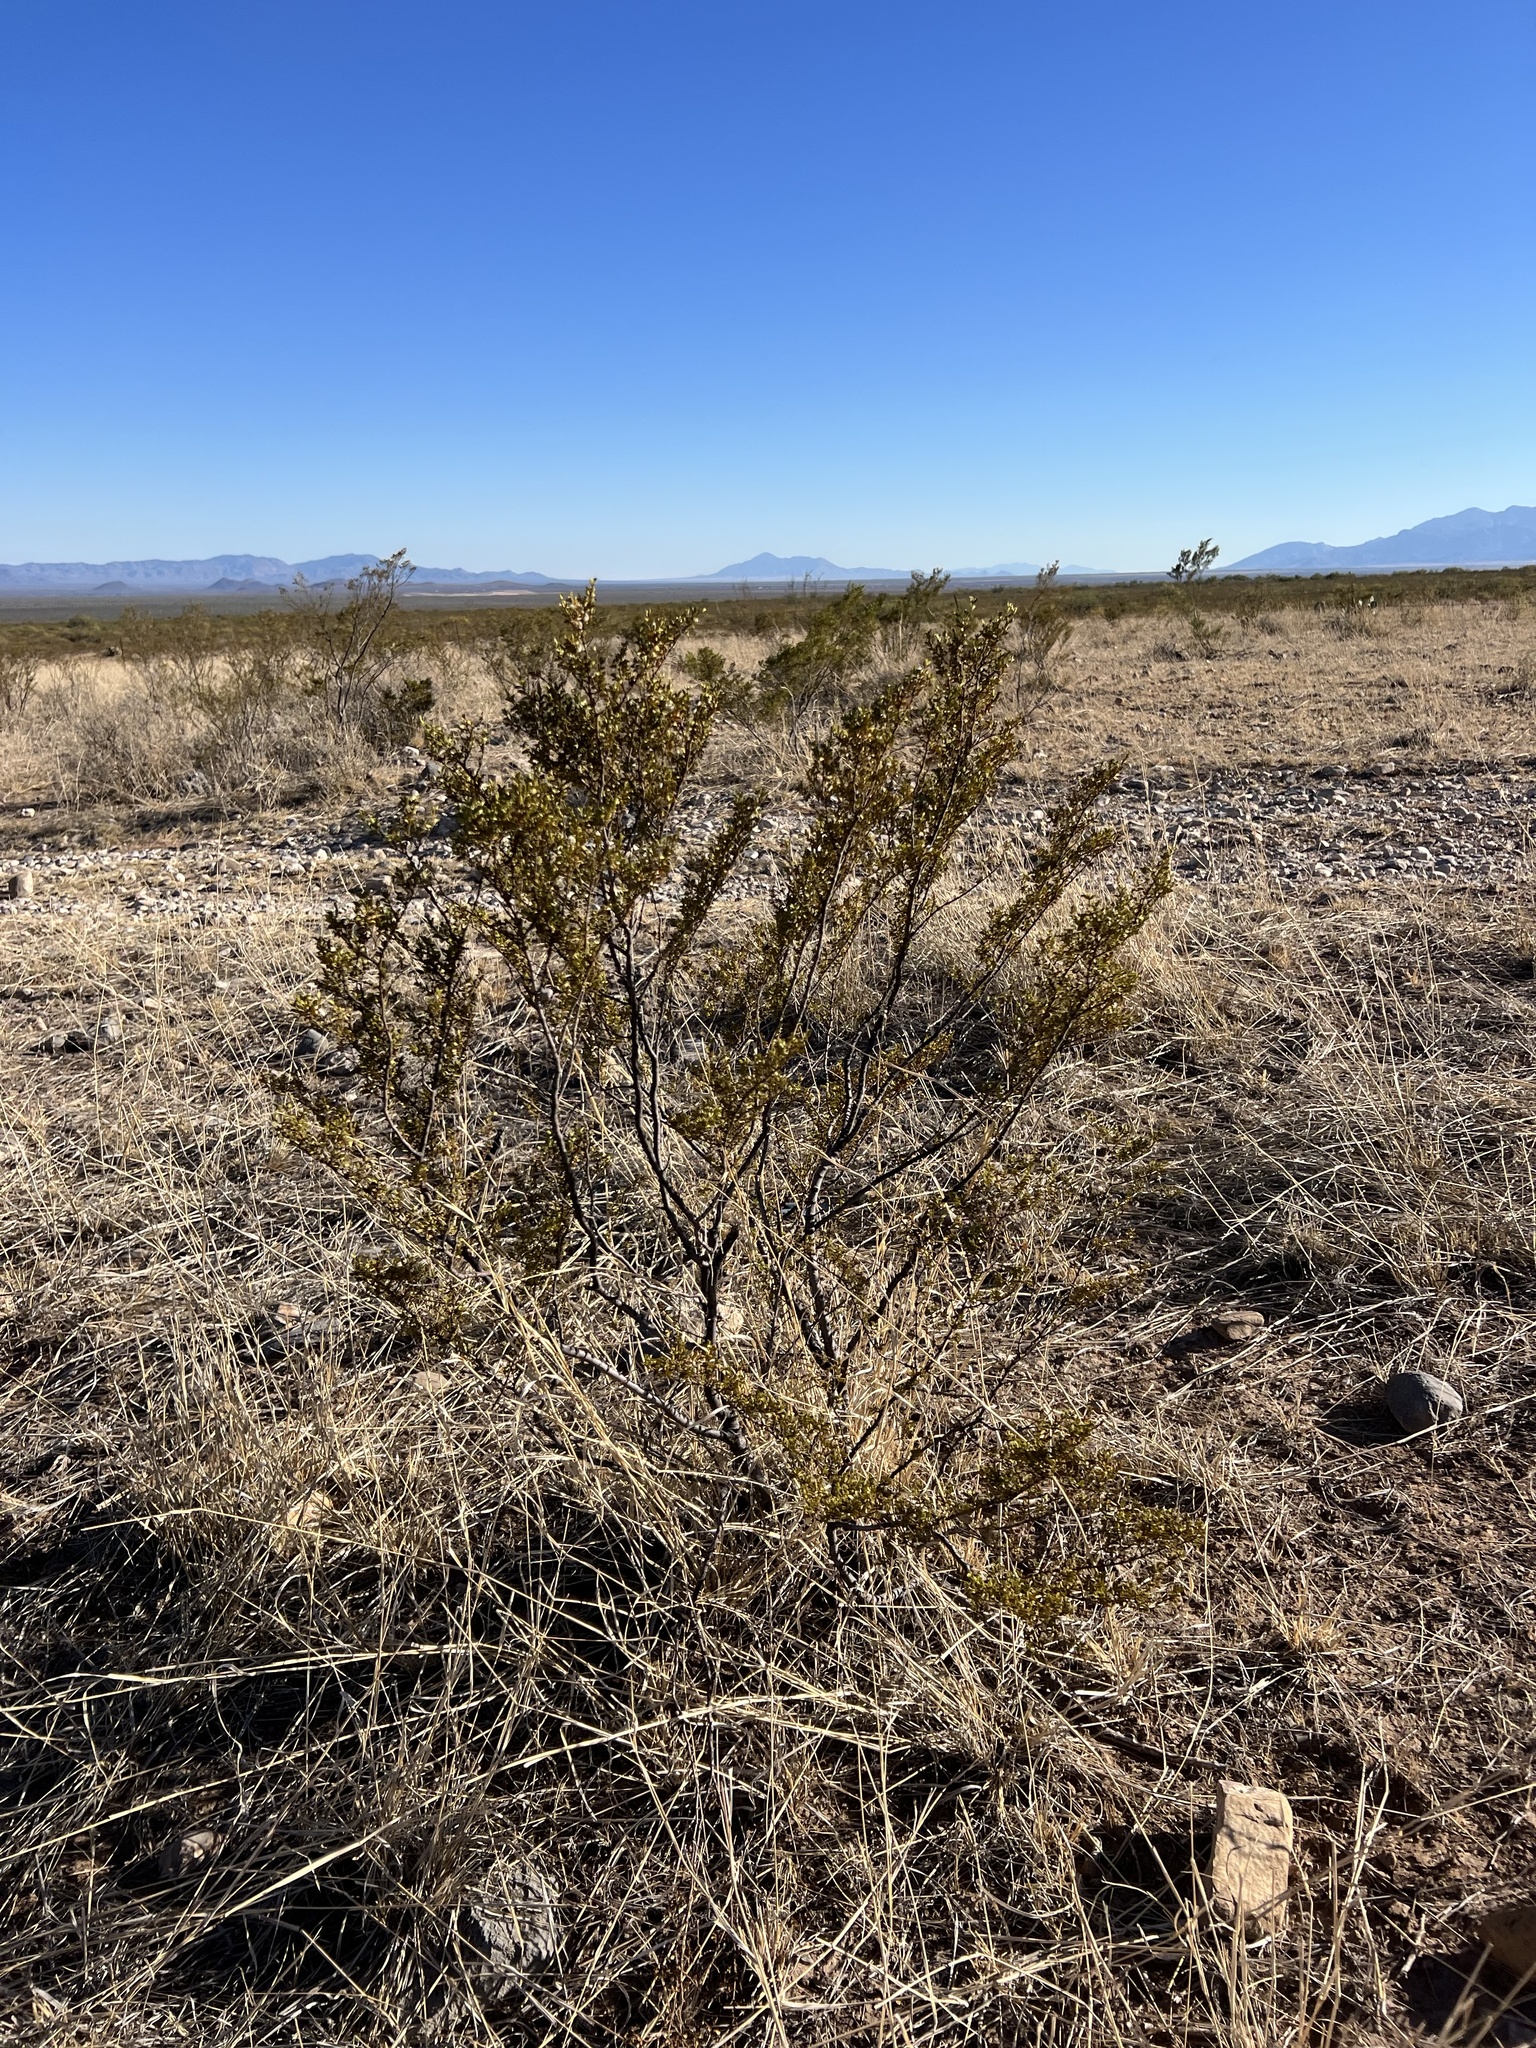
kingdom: Plantae
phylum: Tracheophyta
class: Magnoliopsida
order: Zygophyllales
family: Zygophyllaceae
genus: Larrea
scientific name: Larrea tridentata
